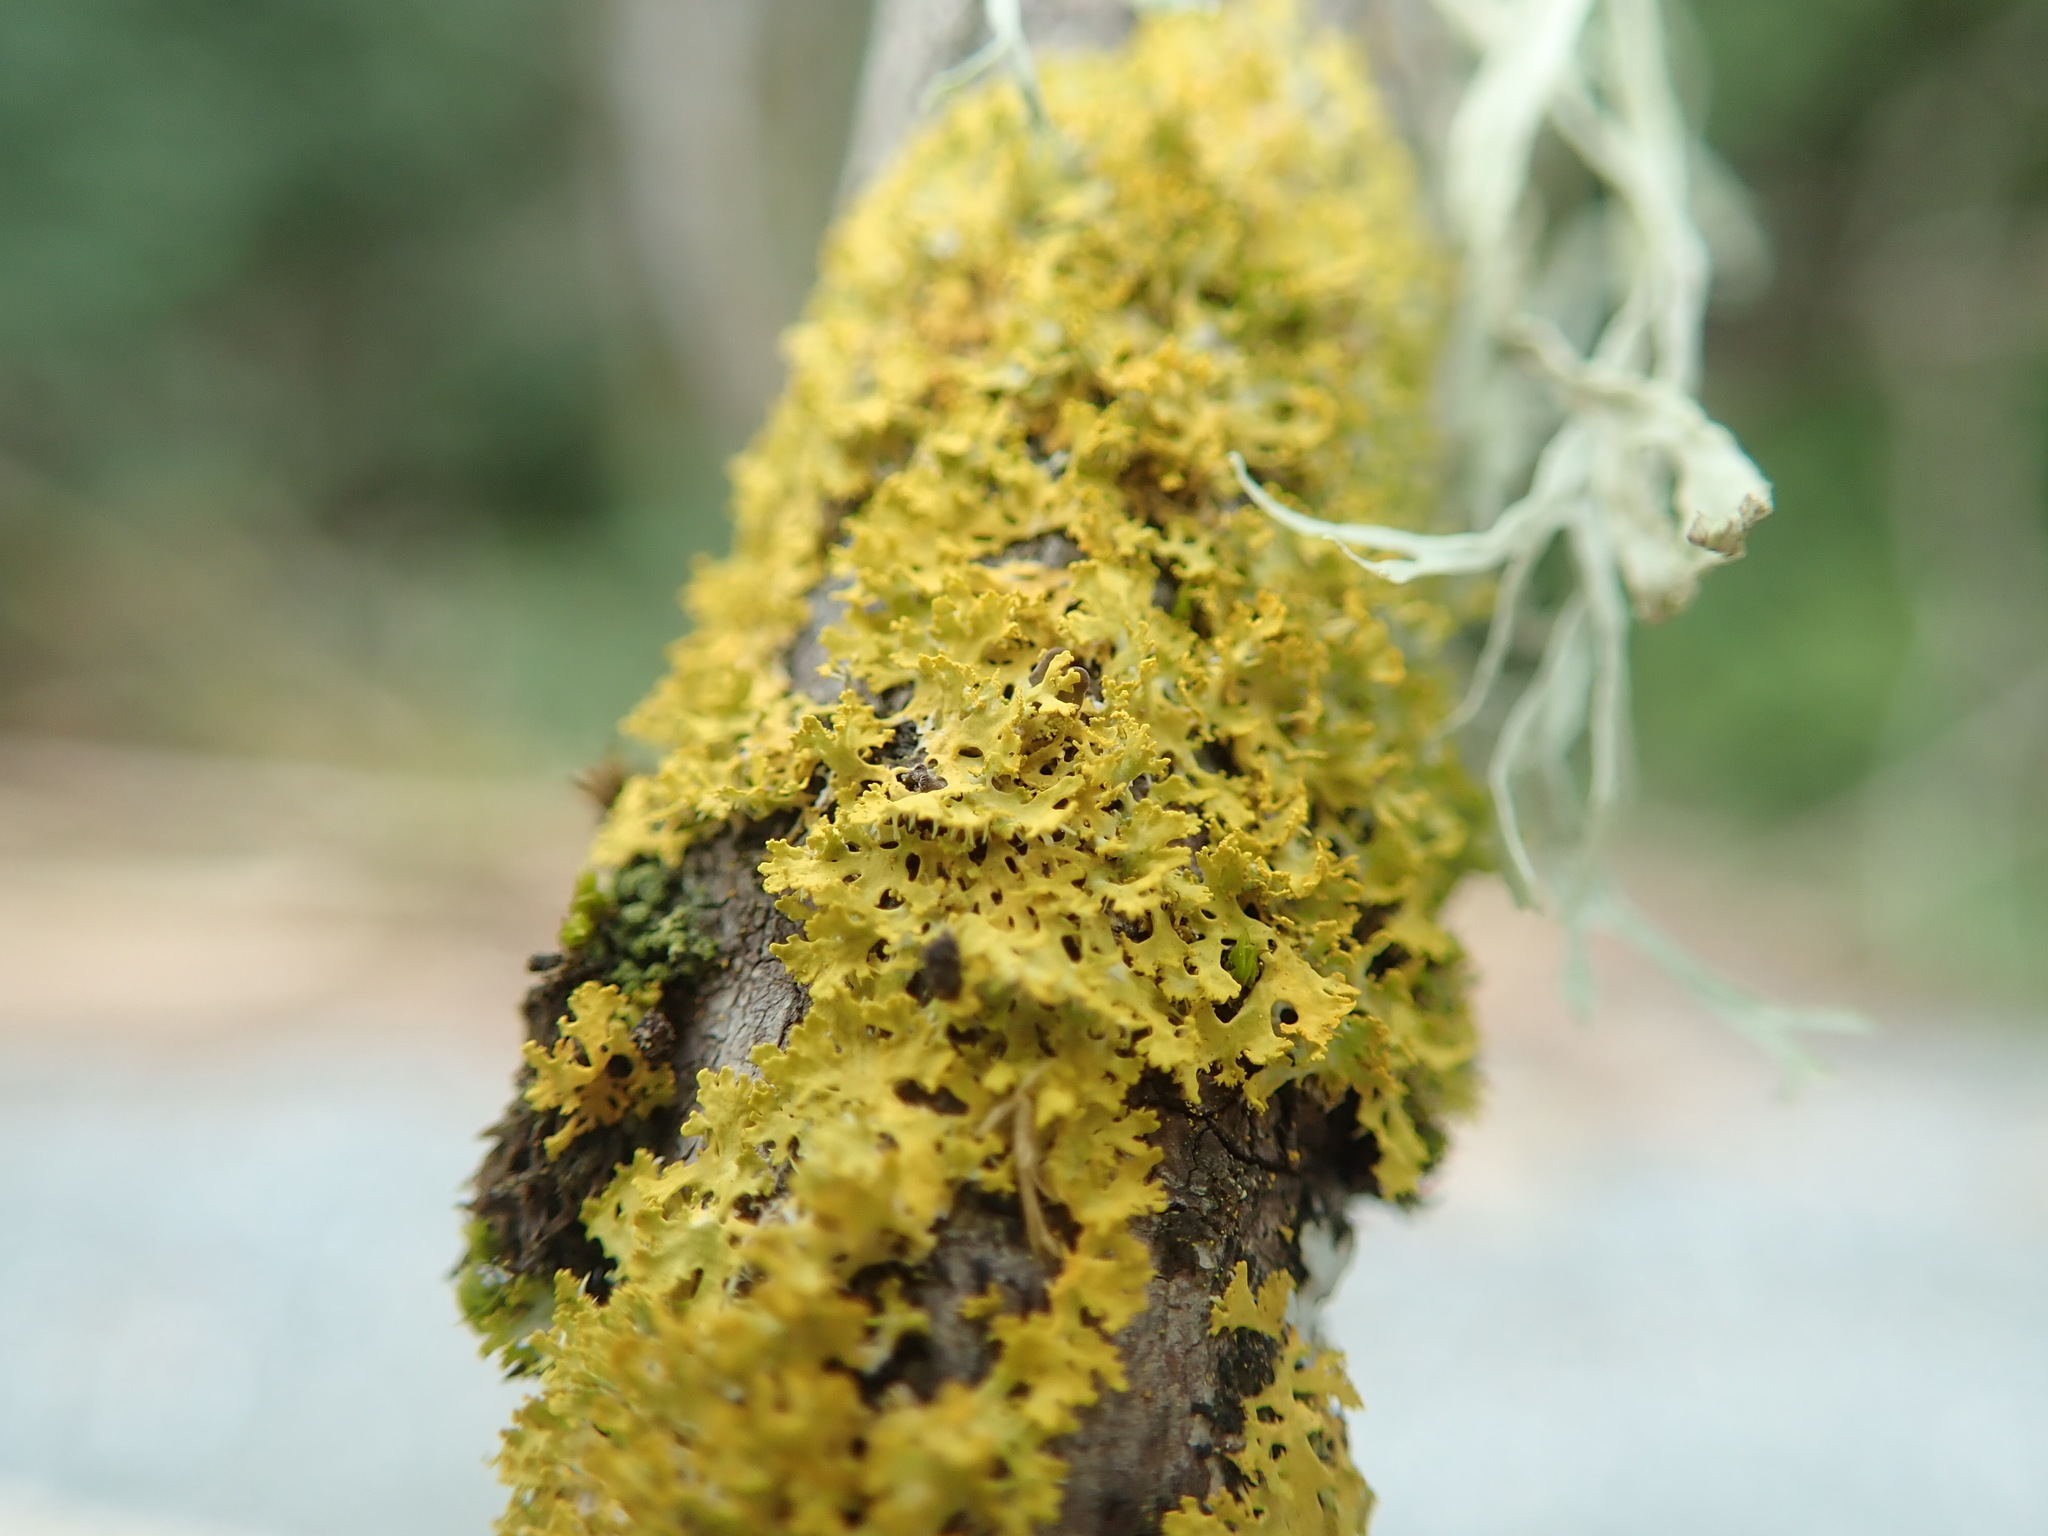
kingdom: Fungi
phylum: Ascomycota
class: Lecanoromycetes
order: Teloschistales
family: Teloschistaceae
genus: Xanthomendoza
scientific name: Xanthomendoza oregana
